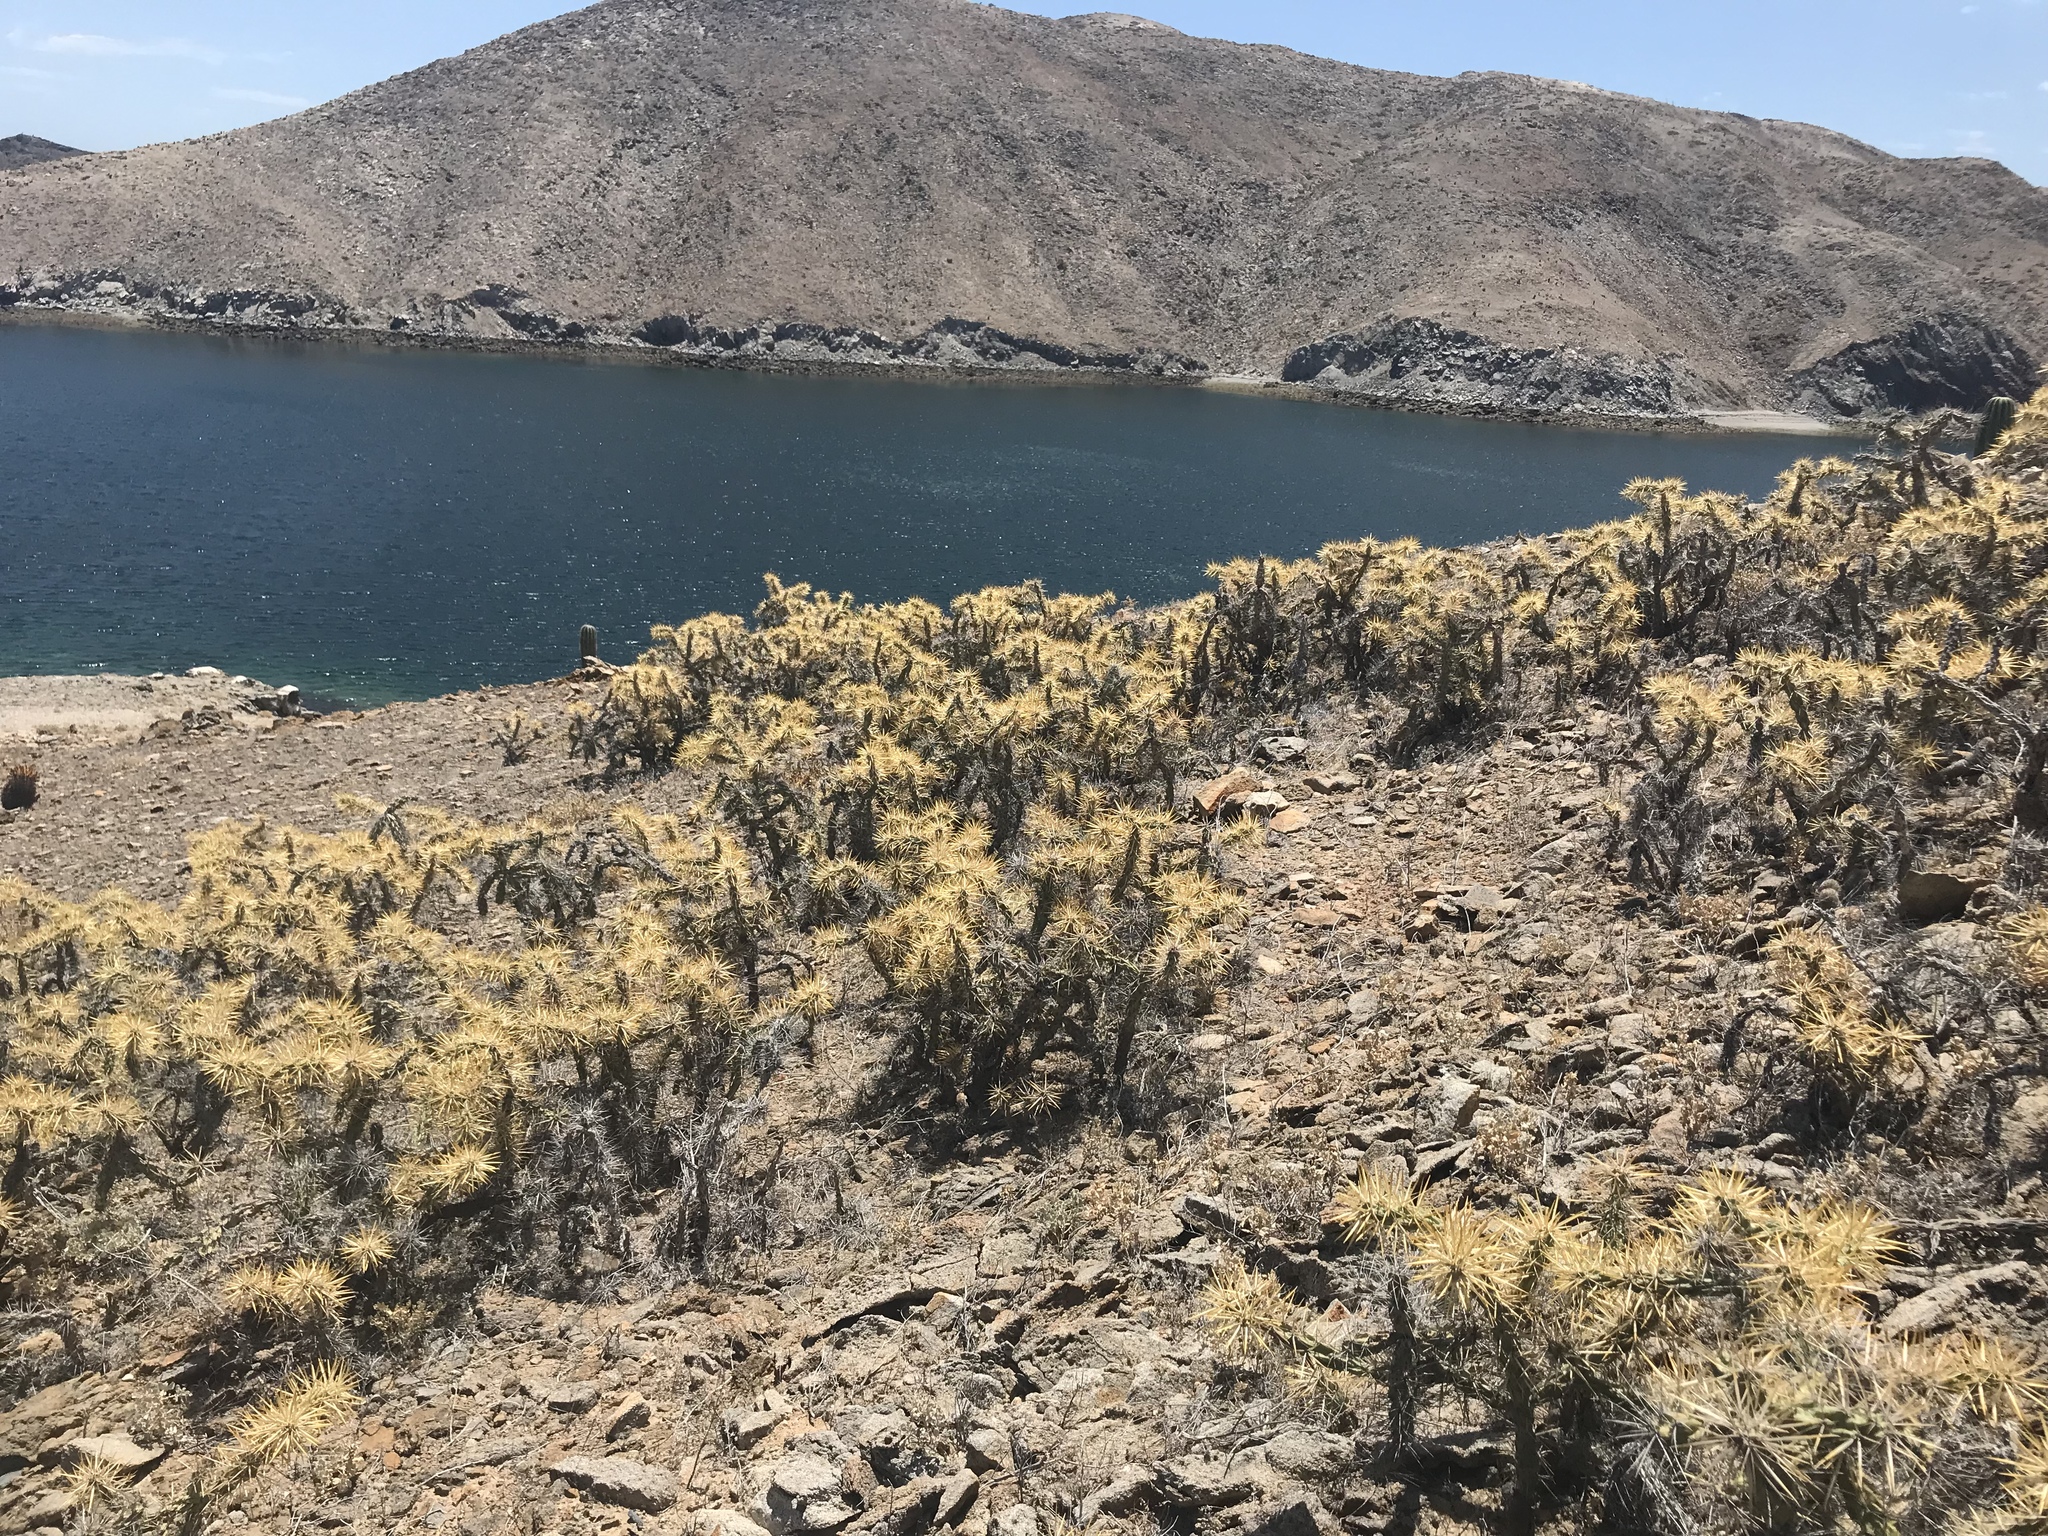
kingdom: Plantae
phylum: Tracheophyta
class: Magnoliopsida
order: Caryophyllales
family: Cactaceae
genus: Cylindropuntia
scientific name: Cylindropuntia molesta
